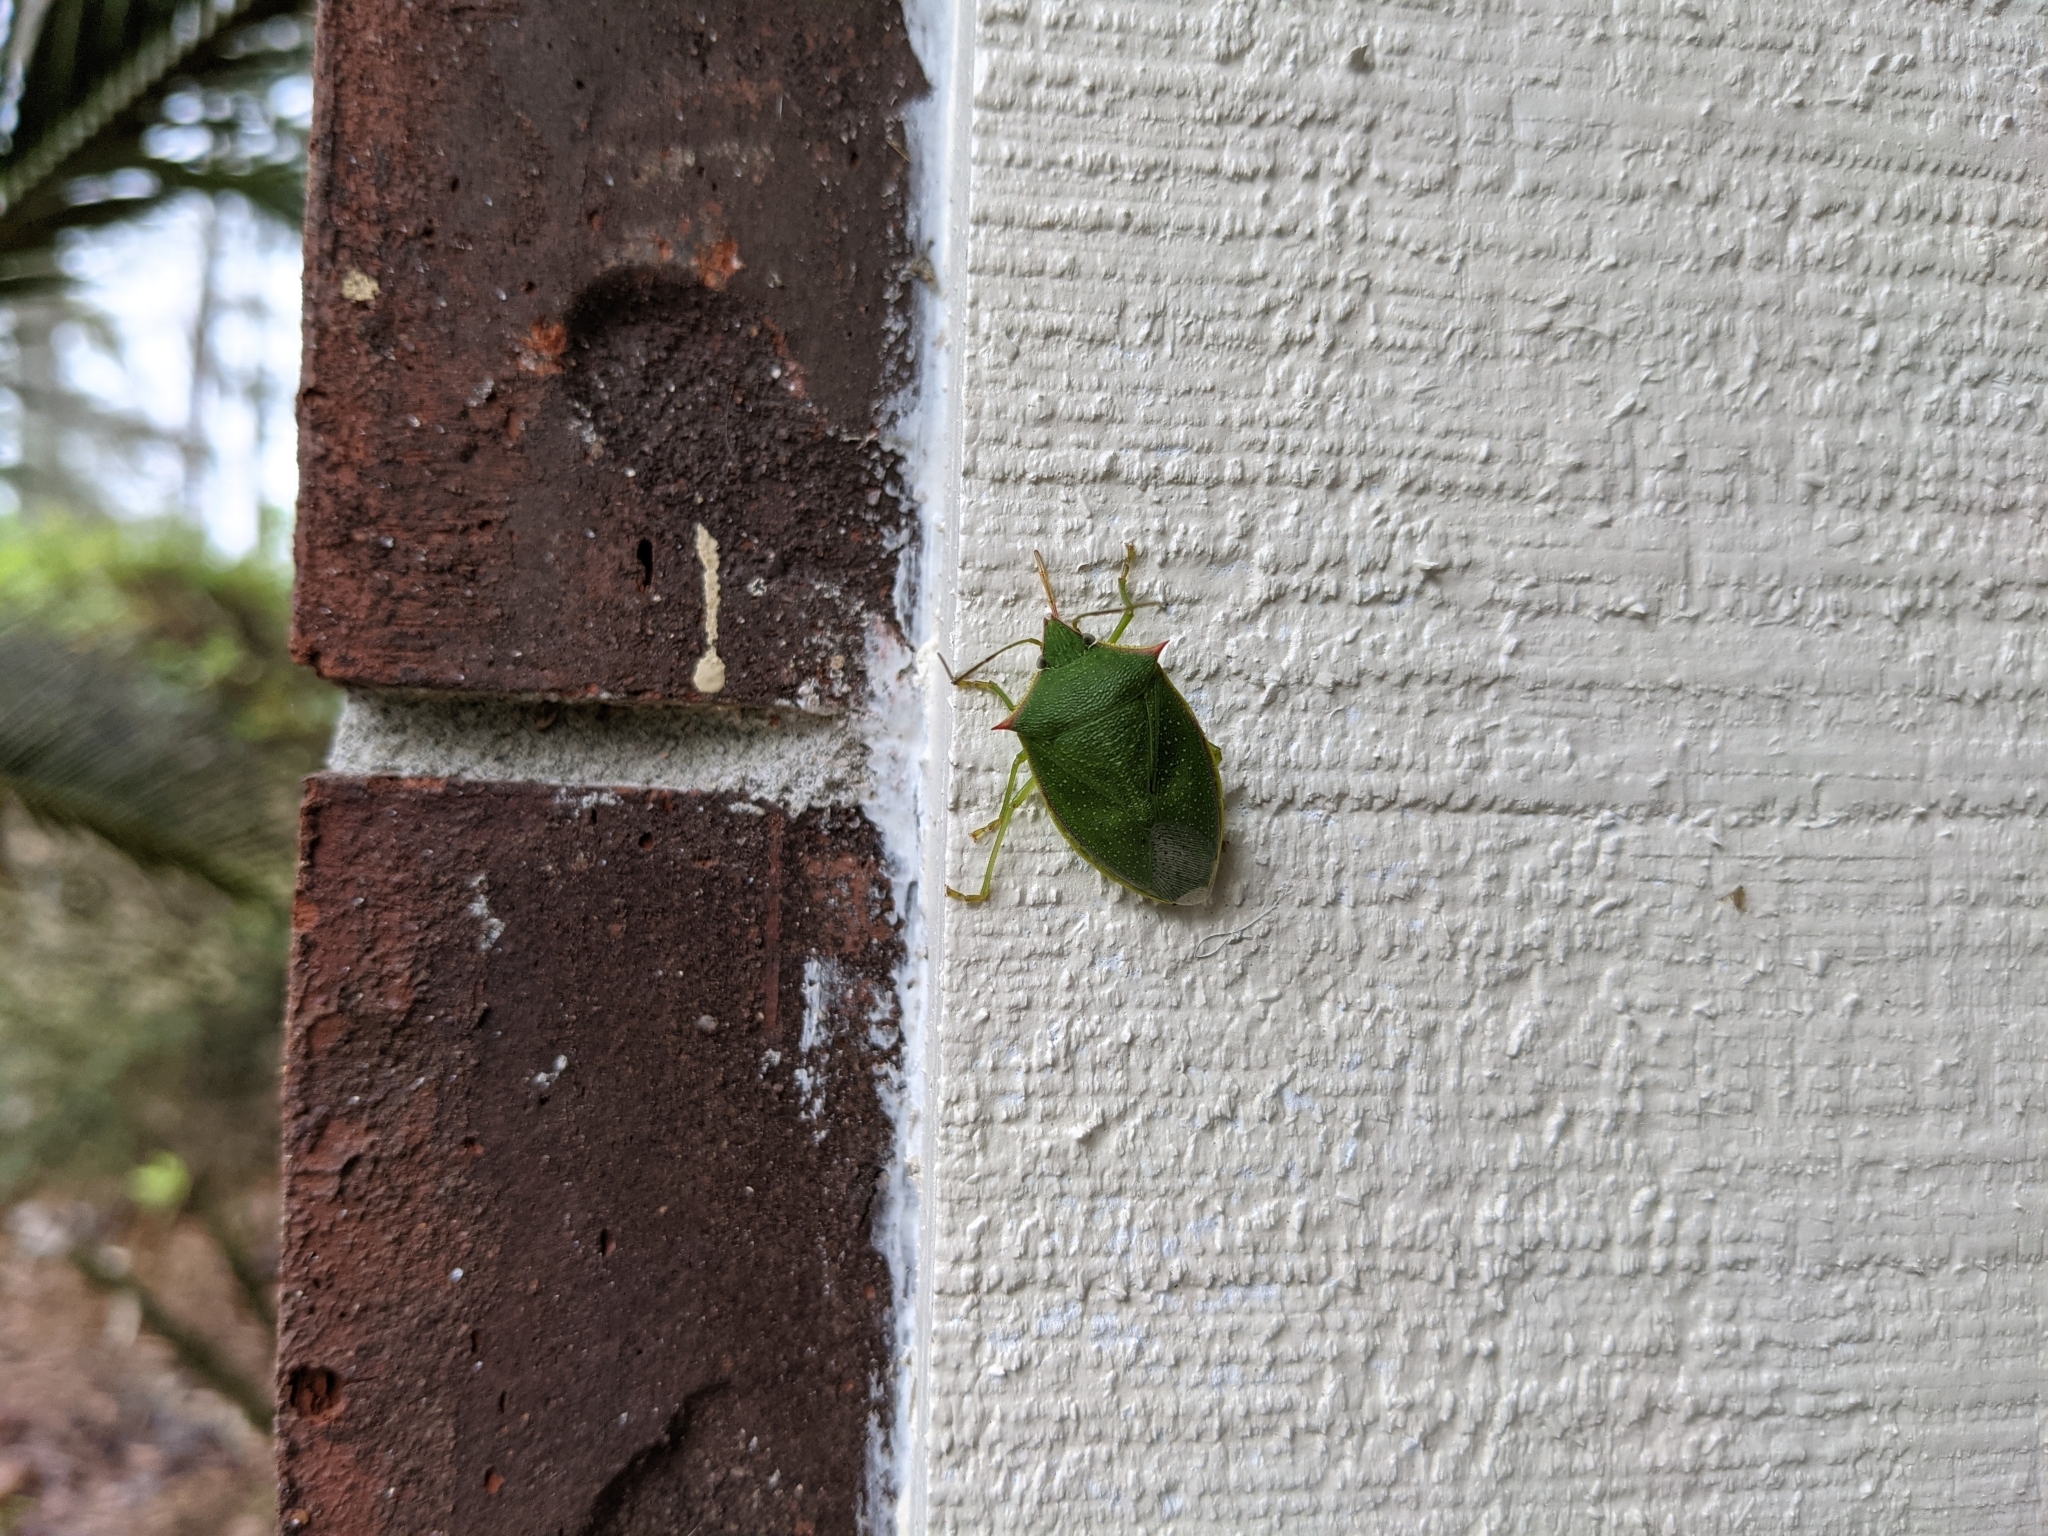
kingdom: Animalia
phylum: Arthropoda
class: Insecta
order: Hemiptera
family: Pentatomidae
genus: Loxa
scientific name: Loxa flavicollis
